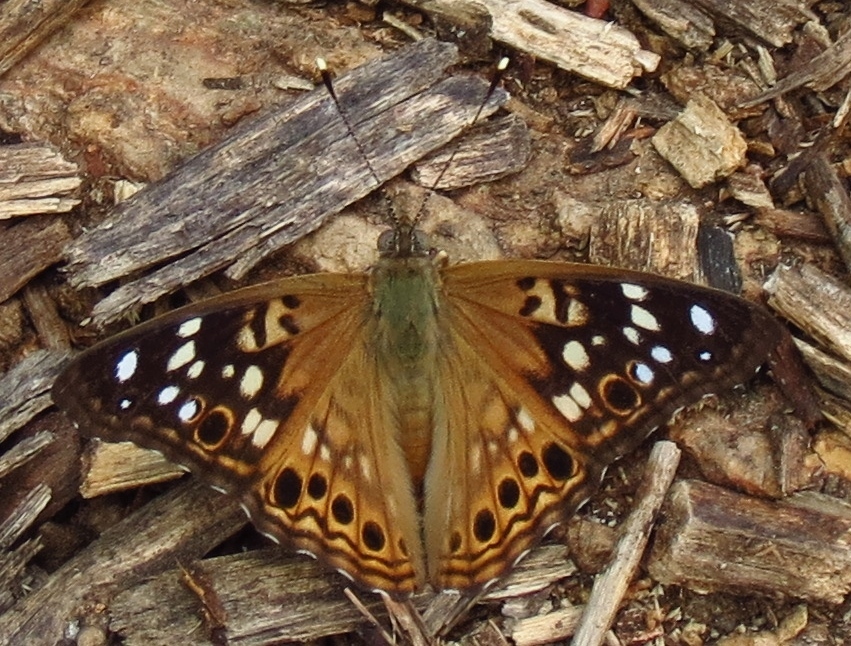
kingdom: Animalia
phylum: Arthropoda
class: Insecta
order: Lepidoptera
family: Nymphalidae
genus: Asterocampa
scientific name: Asterocampa celtis
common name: Hackberry emperor
